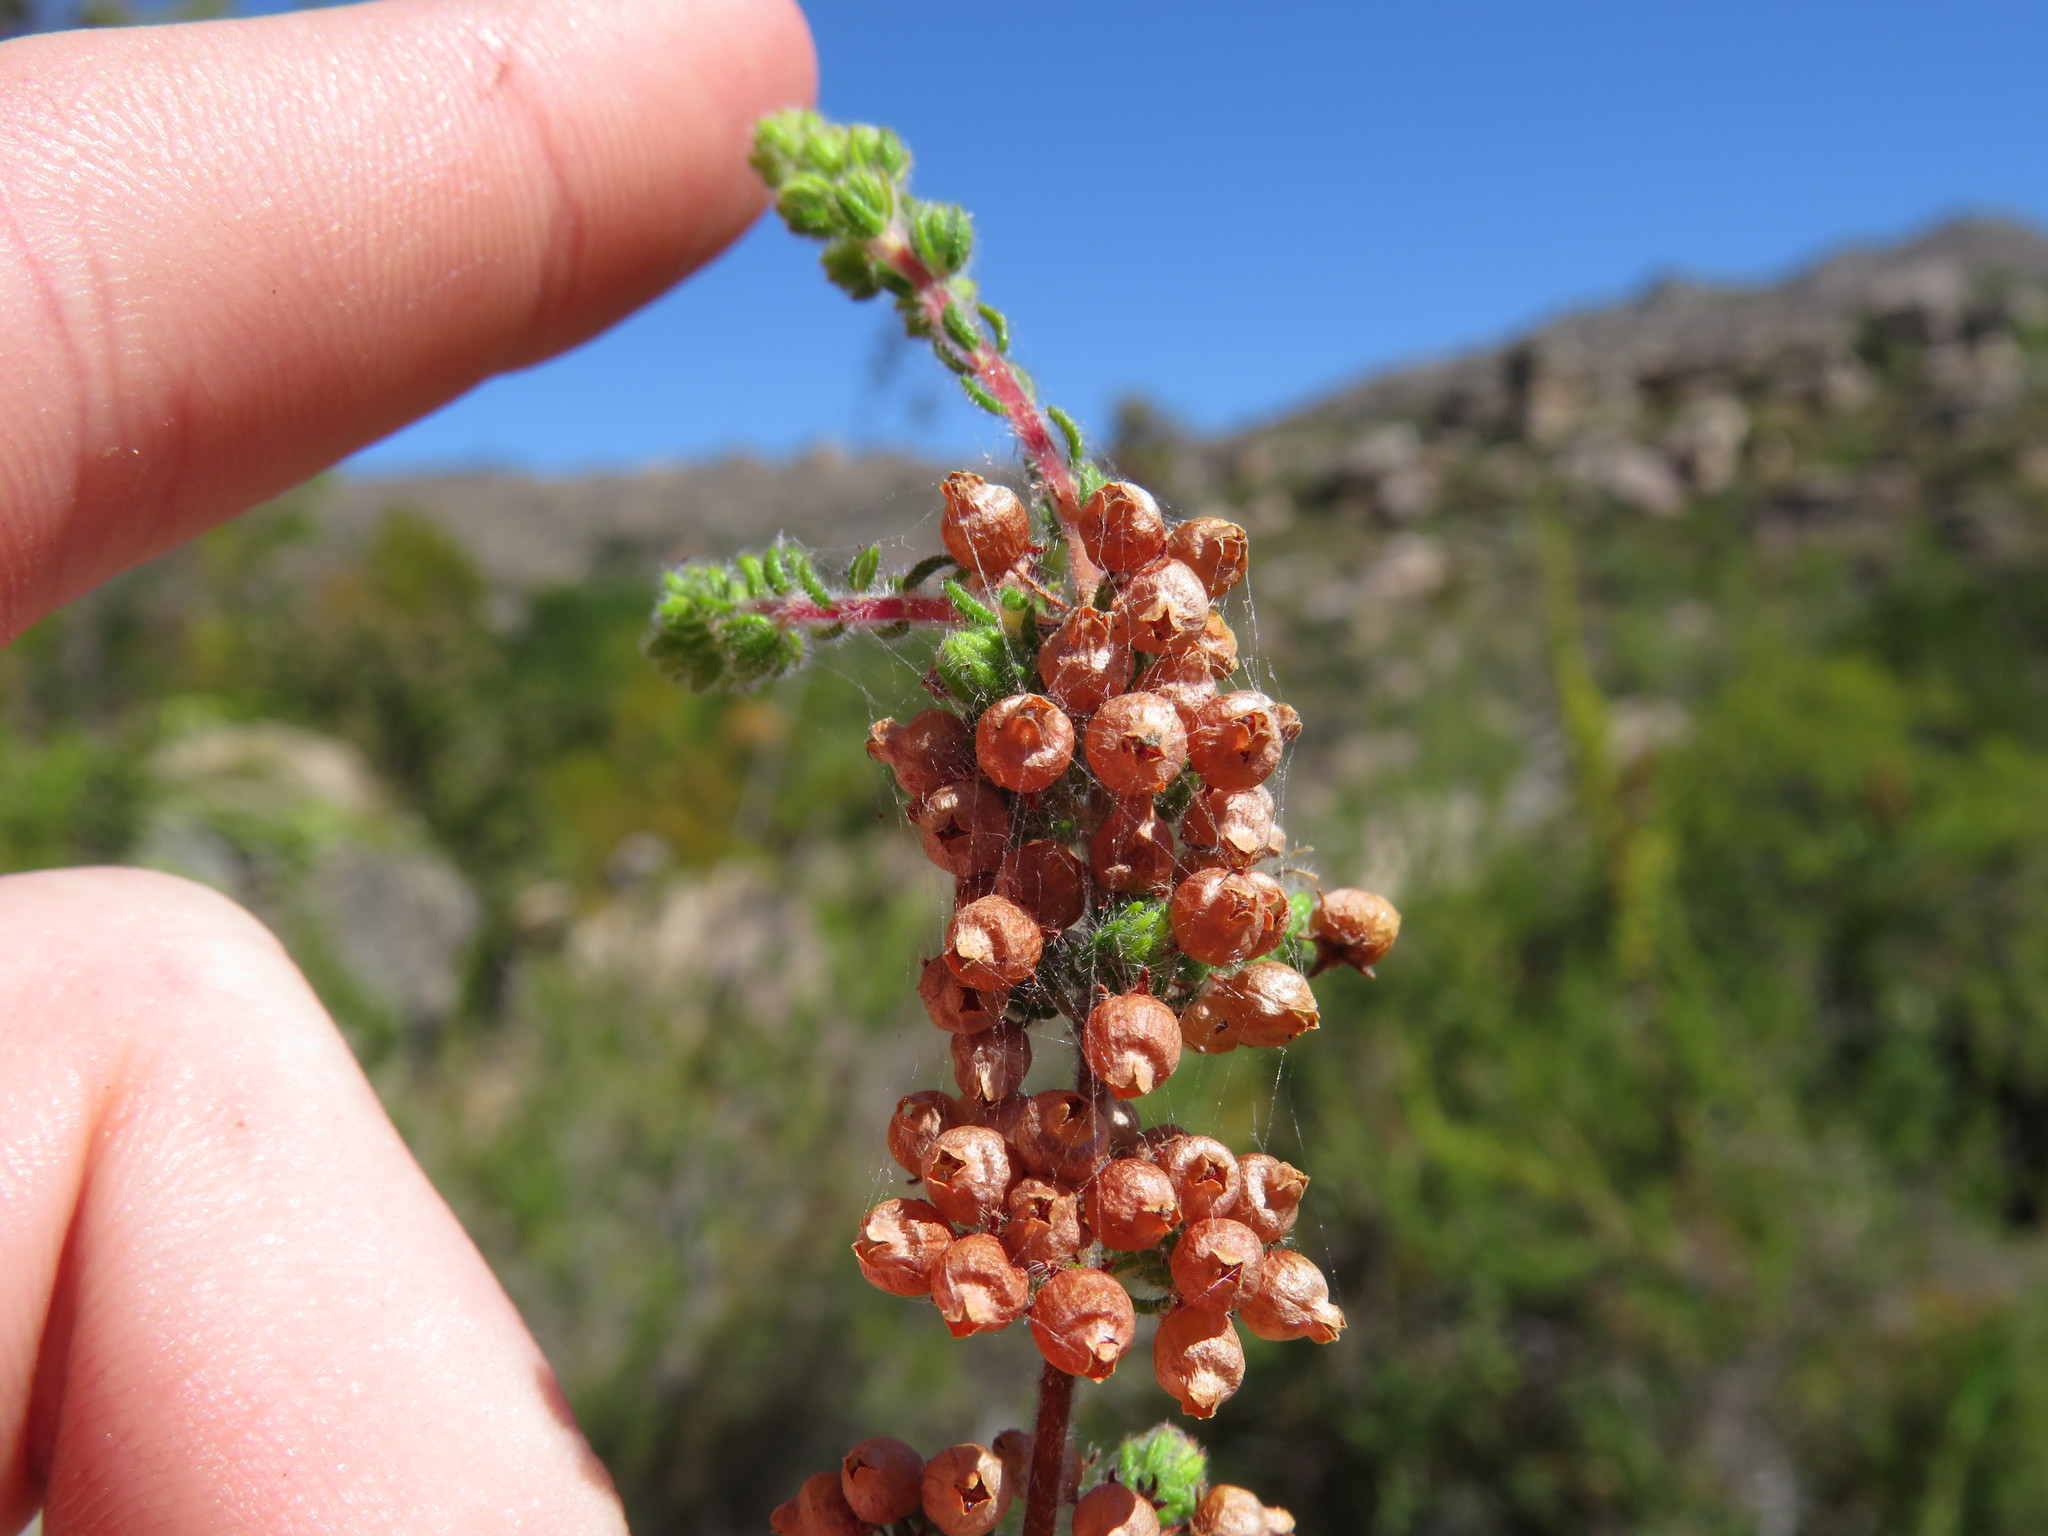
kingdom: Plantae
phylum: Tracheophyta
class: Magnoliopsida
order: Ericales
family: Ericaceae
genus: Erica
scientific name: Erica bergiana
